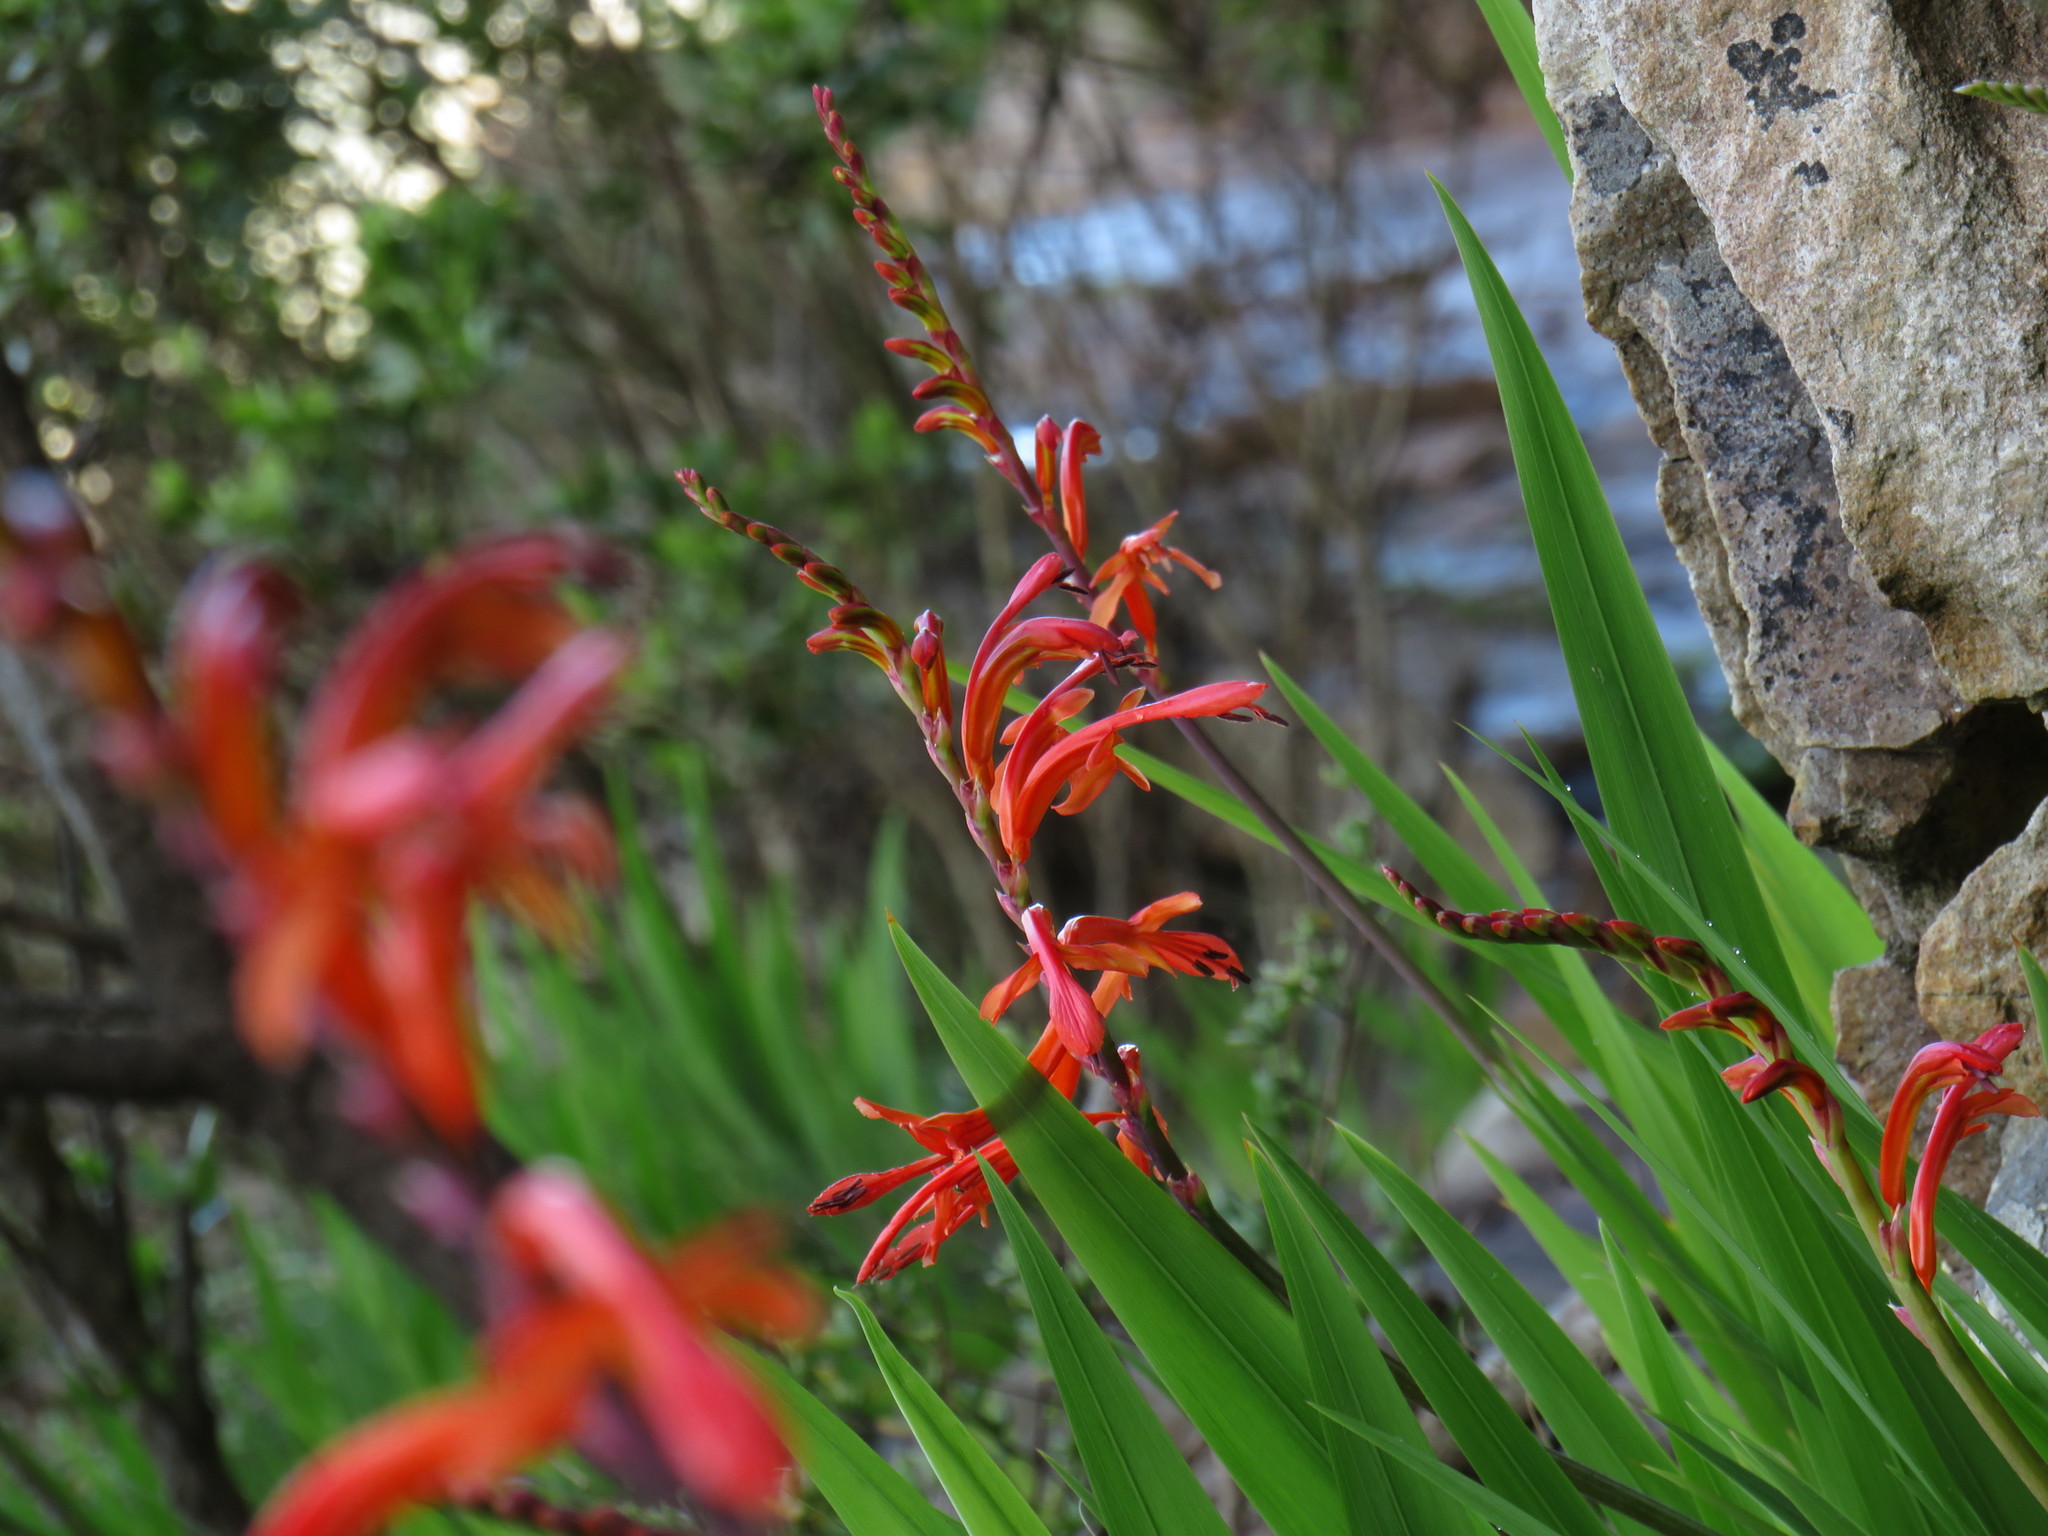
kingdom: Plantae
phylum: Tracheophyta
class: Liliopsida
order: Asparagales
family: Iridaceae
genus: Chasmanthe
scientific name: Chasmanthe floribunda
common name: African cornflag
